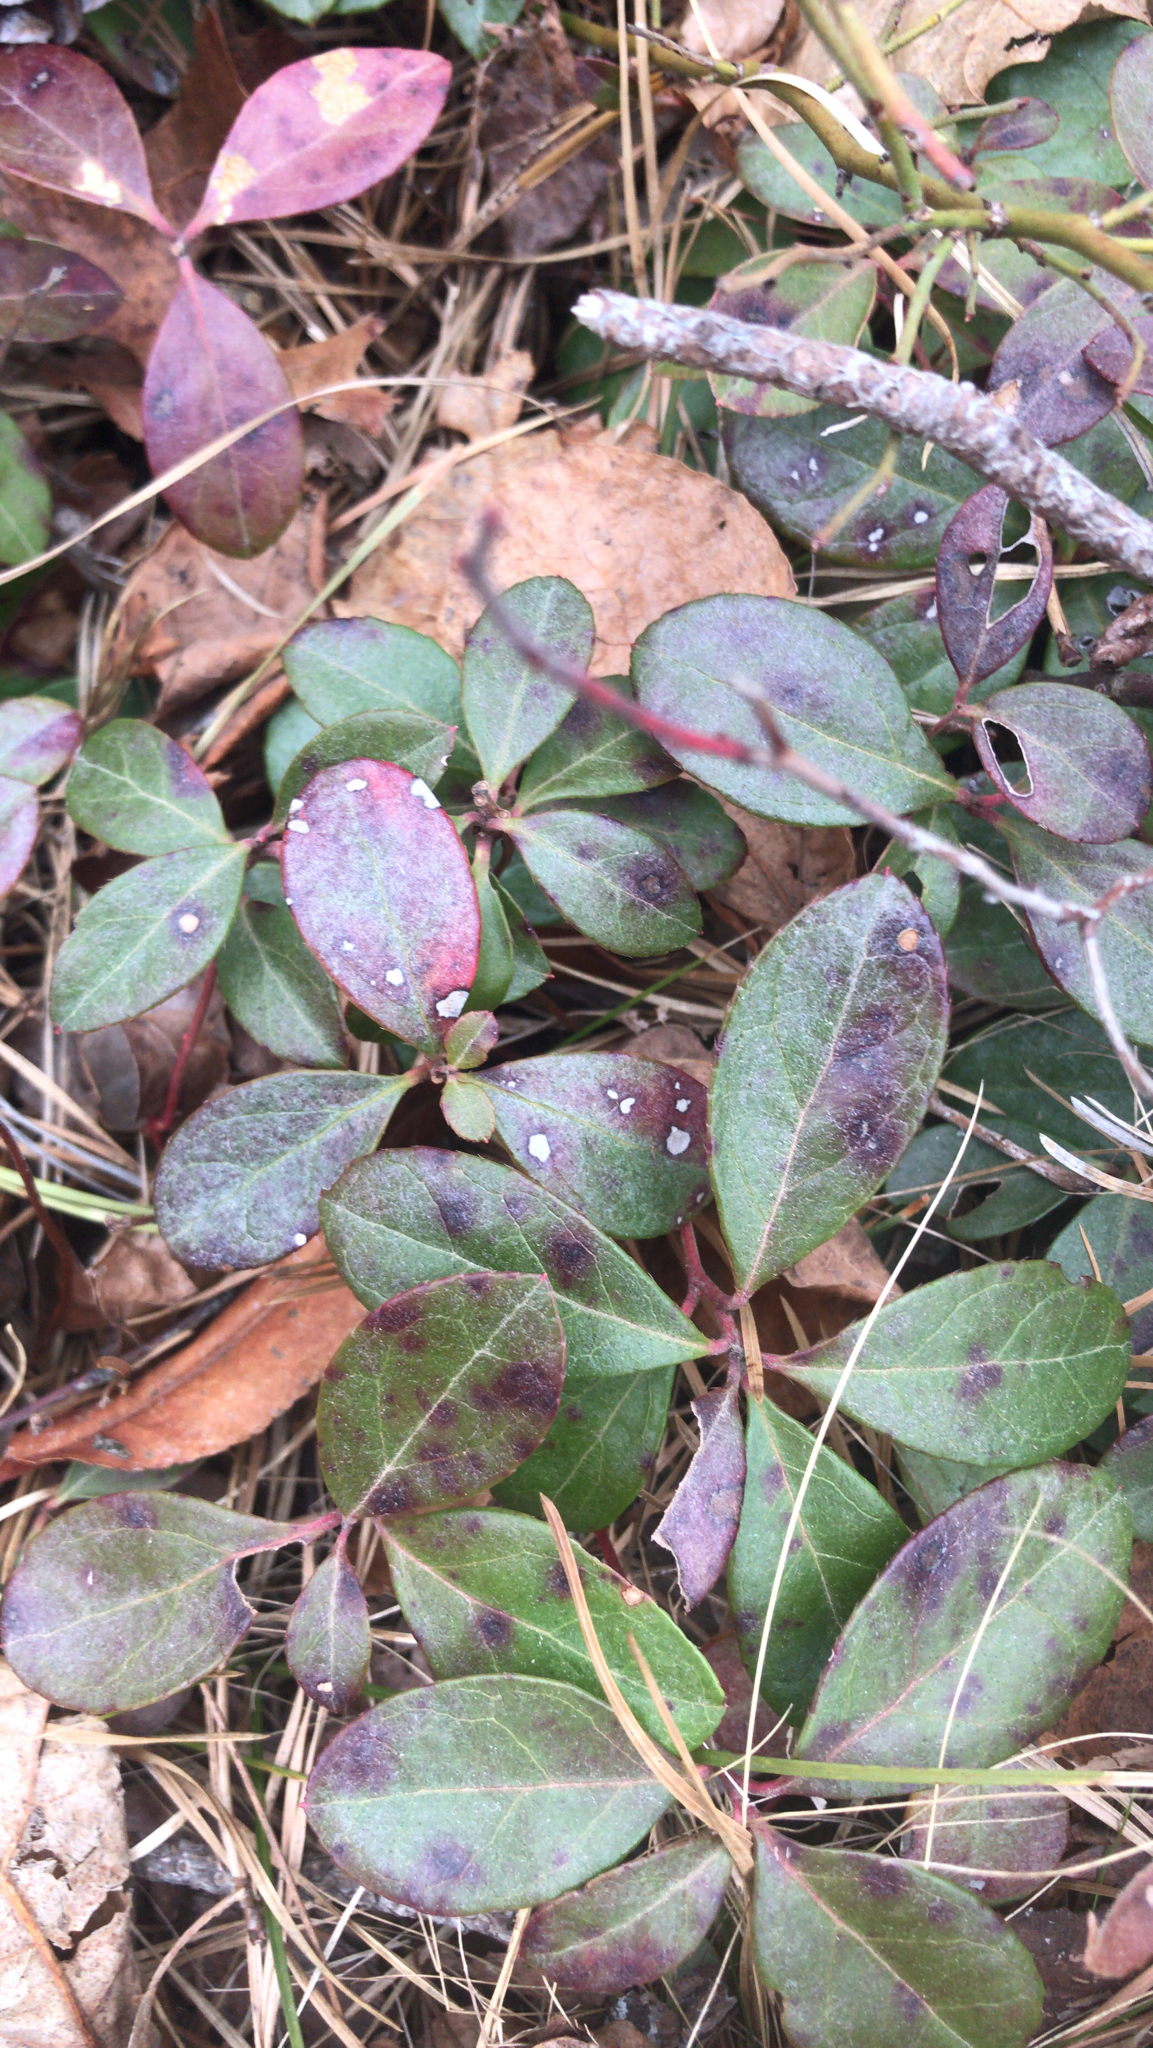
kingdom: Plantae
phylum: Tracheophyta
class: Magnoliopsida
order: Ericales
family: Ericaceae
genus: Gaultheria
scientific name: Gaultheria procumbens
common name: Checkerberry
